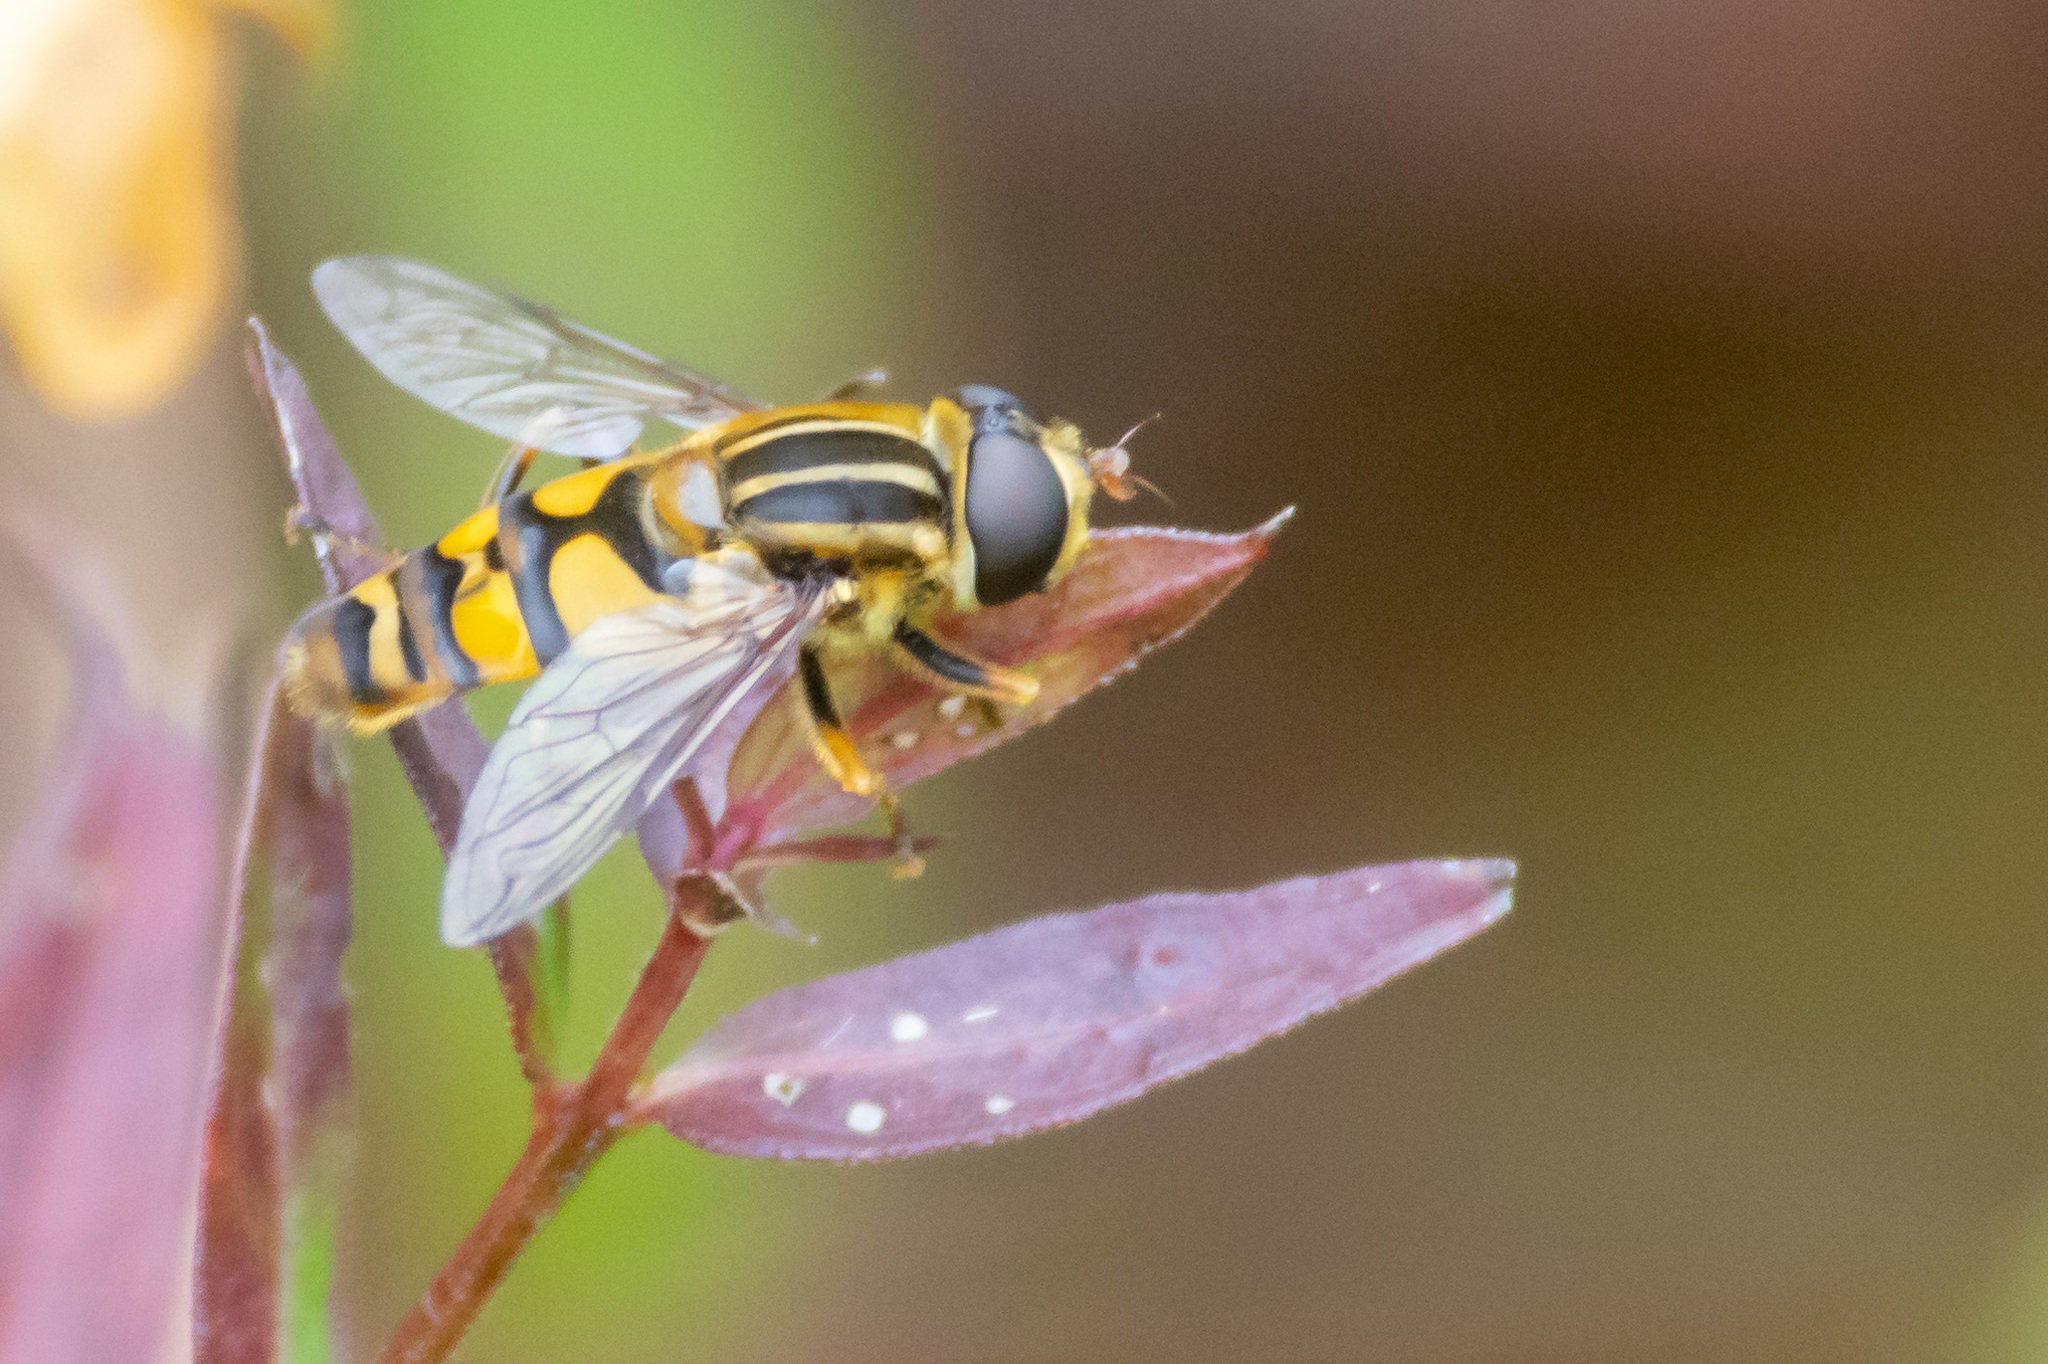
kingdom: Animalia
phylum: Arthropoda
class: Insecta
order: Diptera
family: Syrphidae
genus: Helophilus
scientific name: Helophilus fasciatus
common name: Narrow-headed marsh fly
